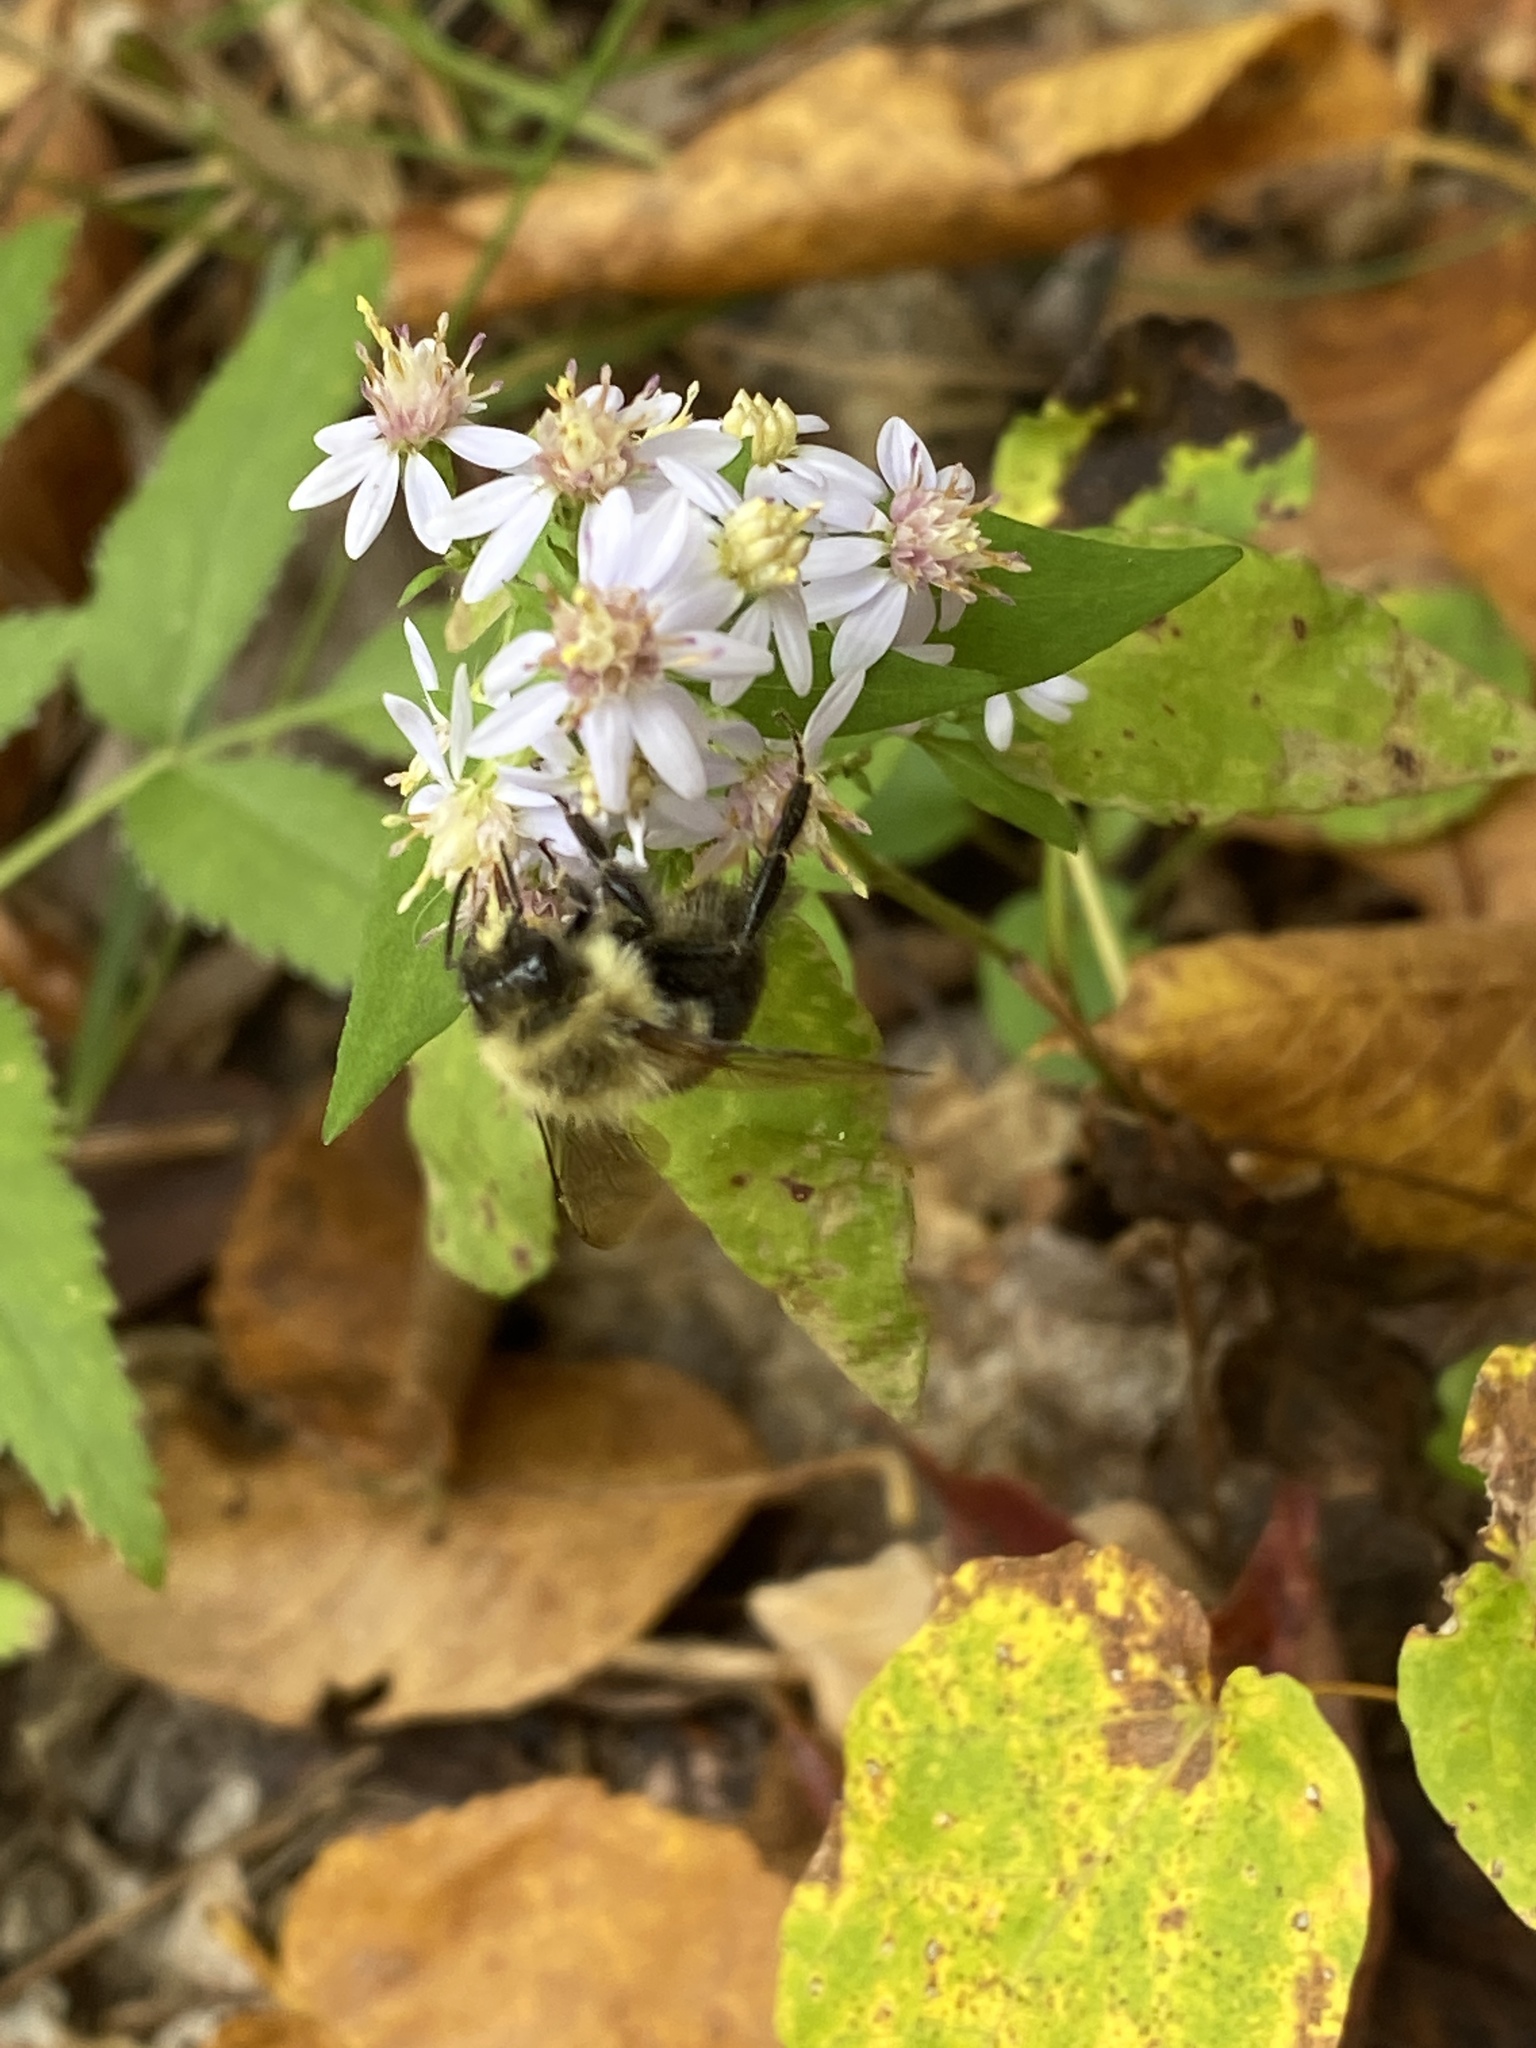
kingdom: Animalia
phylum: Arthropoda
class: Insecta
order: Hymenoptera
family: Apidae
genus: Bombus
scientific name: Bombus impatiens
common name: Common eastern bumble bee
